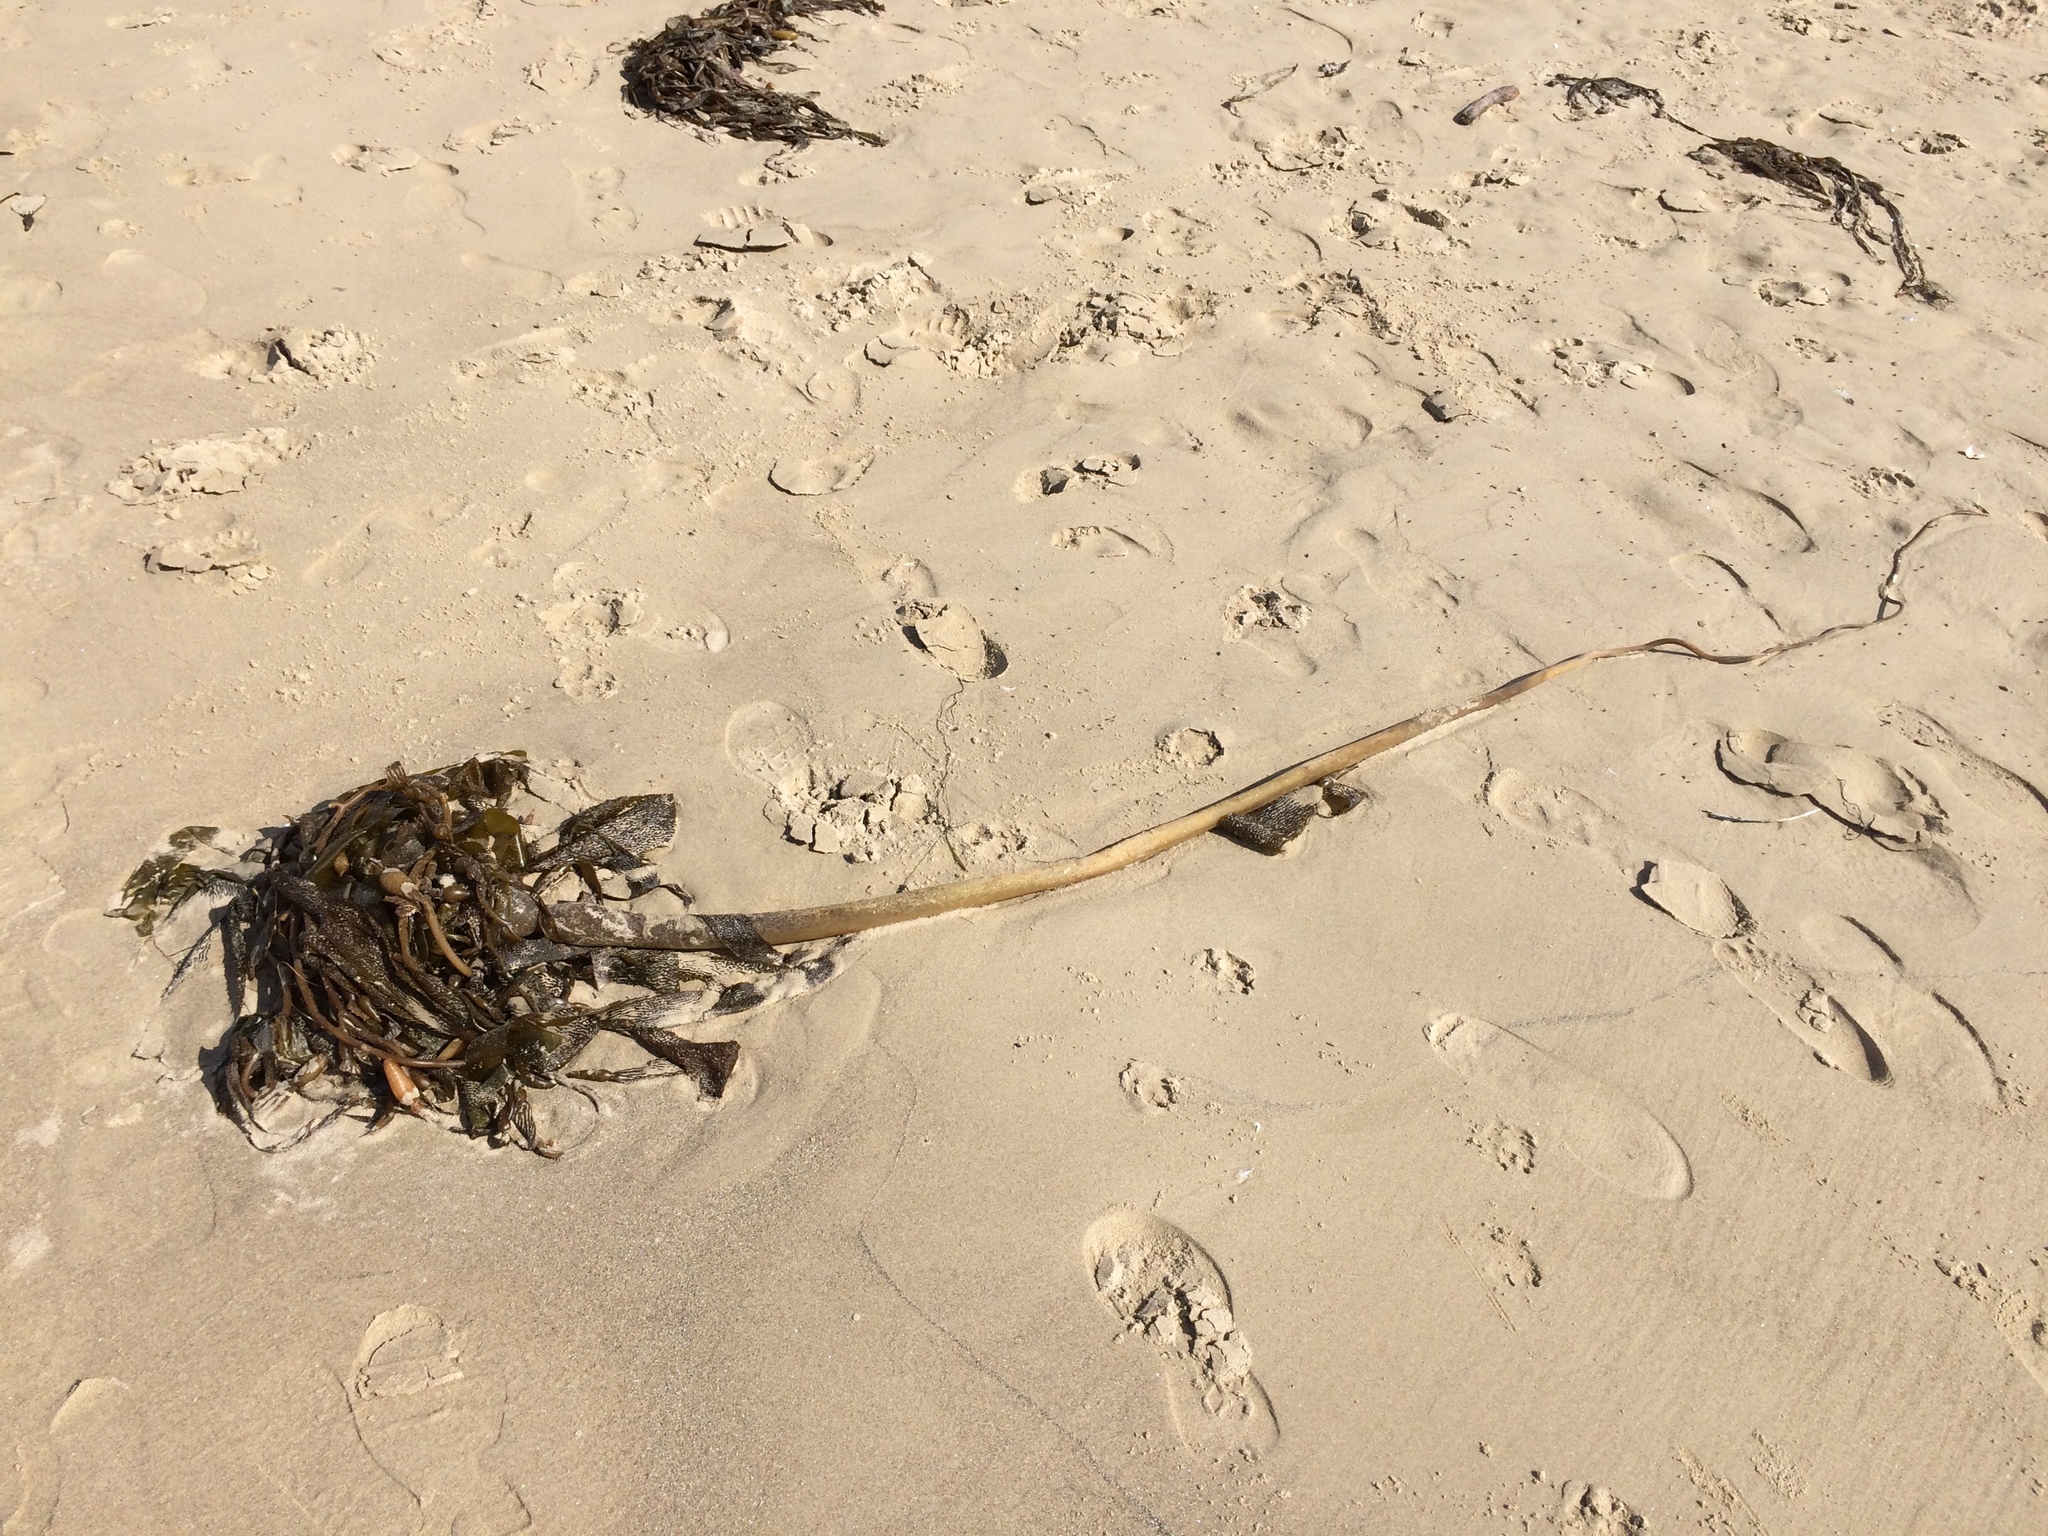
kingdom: Chromista
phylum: Ochrophyta
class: Phaeophyceae
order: Laminariales
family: Laminariaceae
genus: Nereocystis
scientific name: Nereocystis luetkeana
